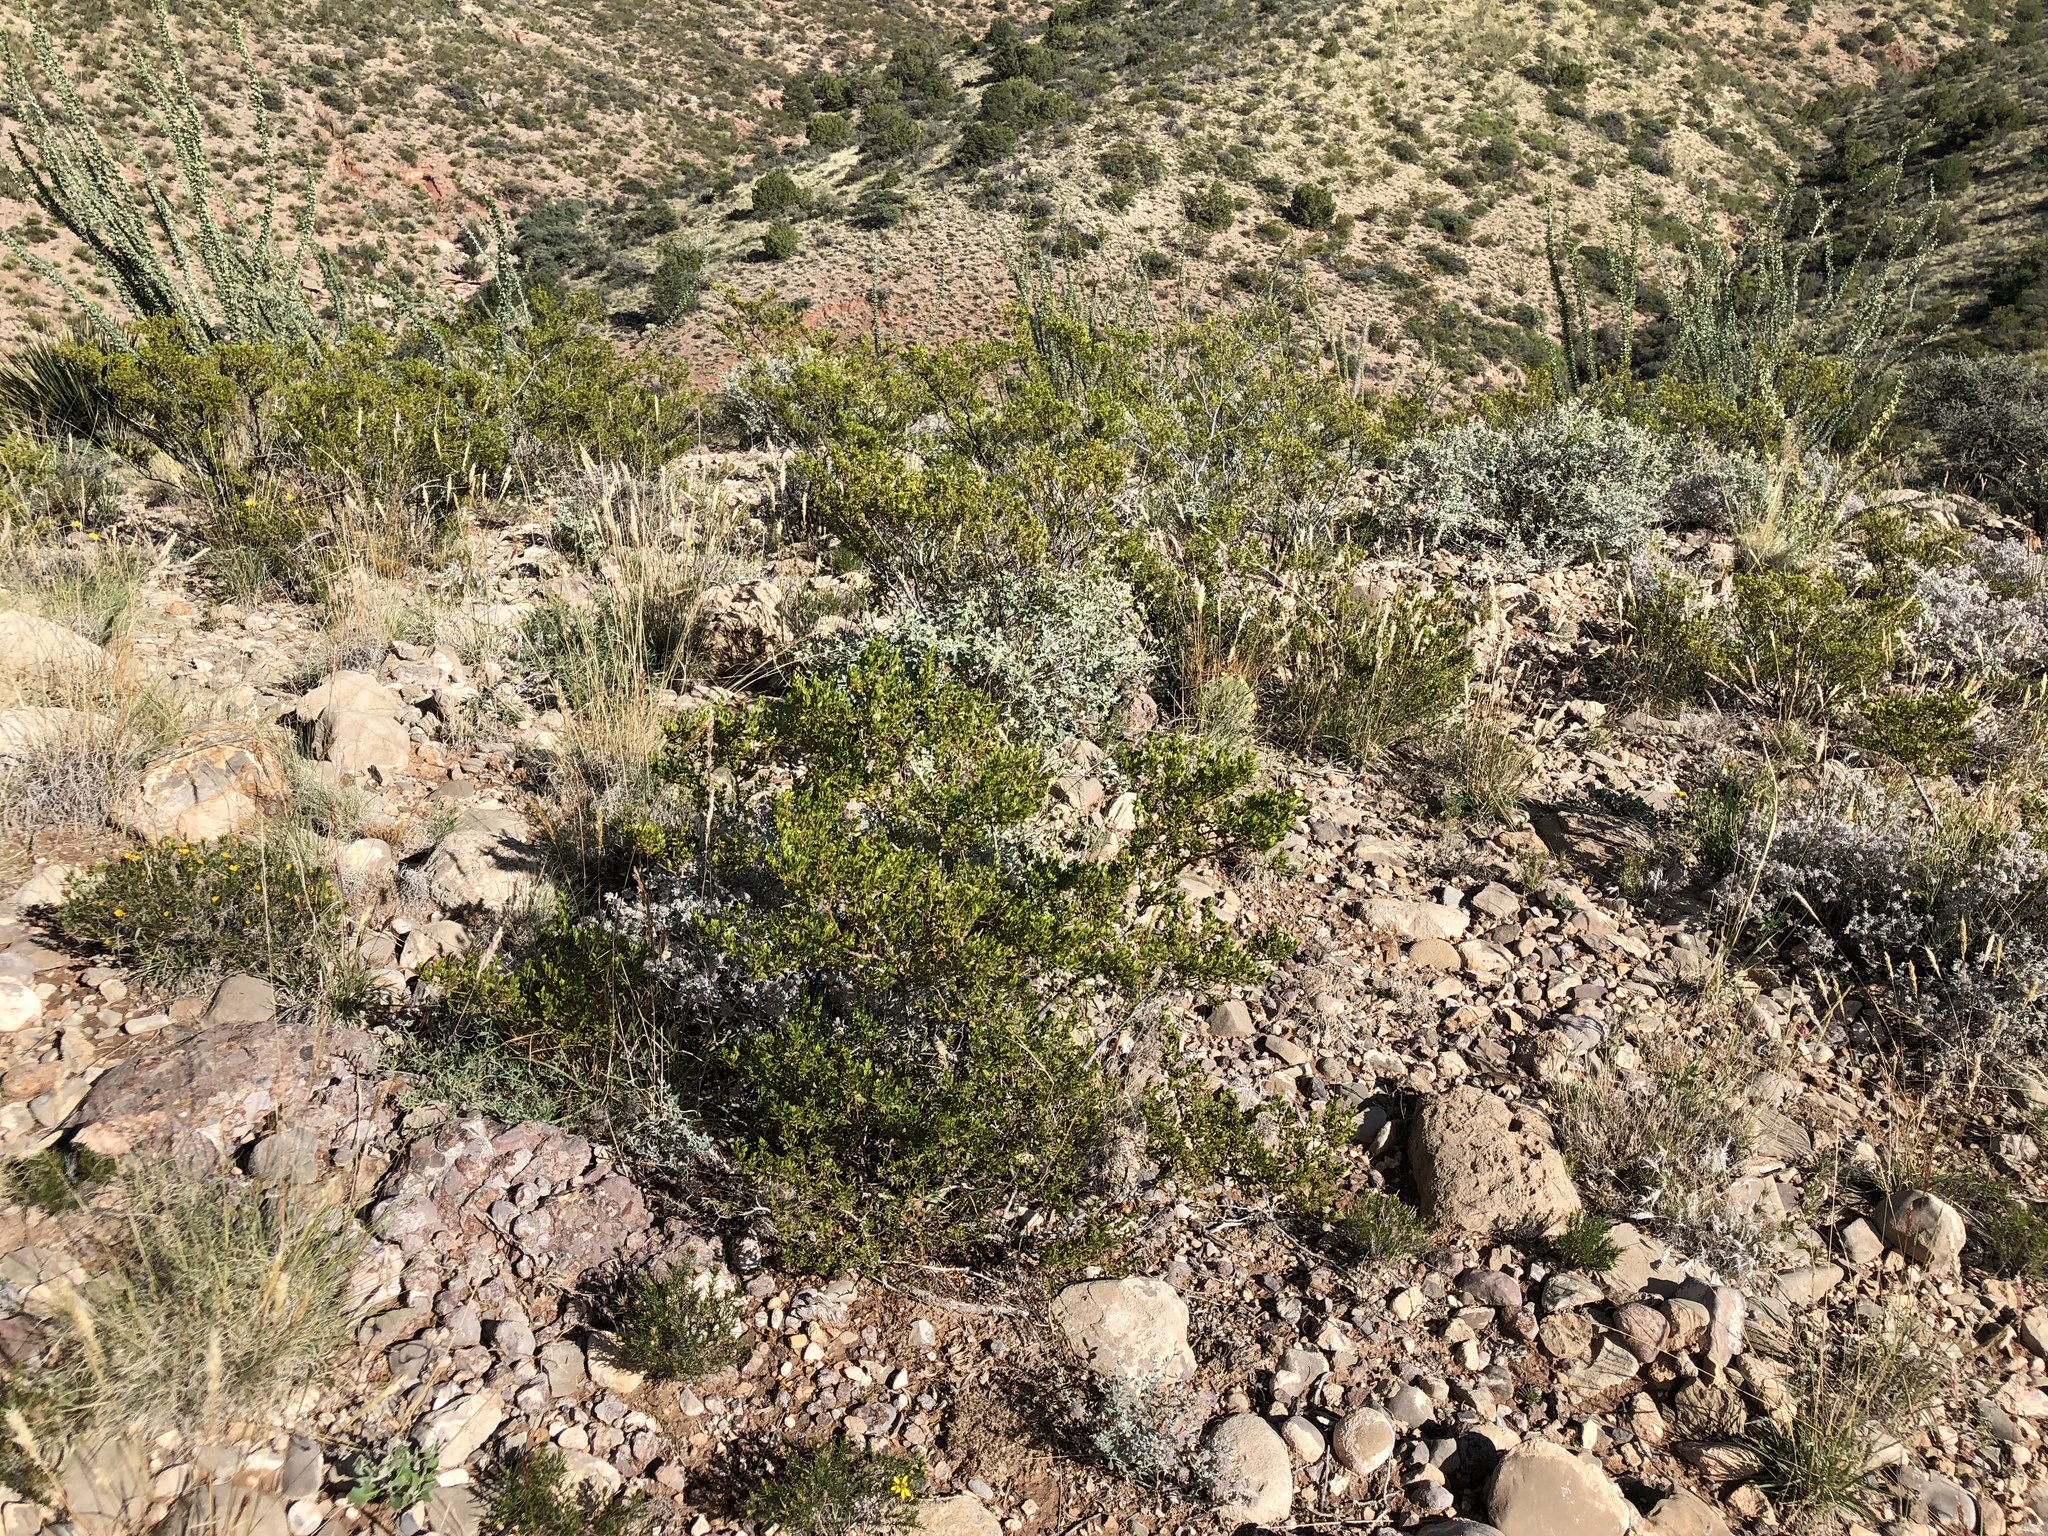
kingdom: Plantae
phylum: Tracheophyta
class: Magnoliopsida
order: Zygophyllales
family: Zygophyllaceae
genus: Larrea
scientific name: Larrea tridentata
